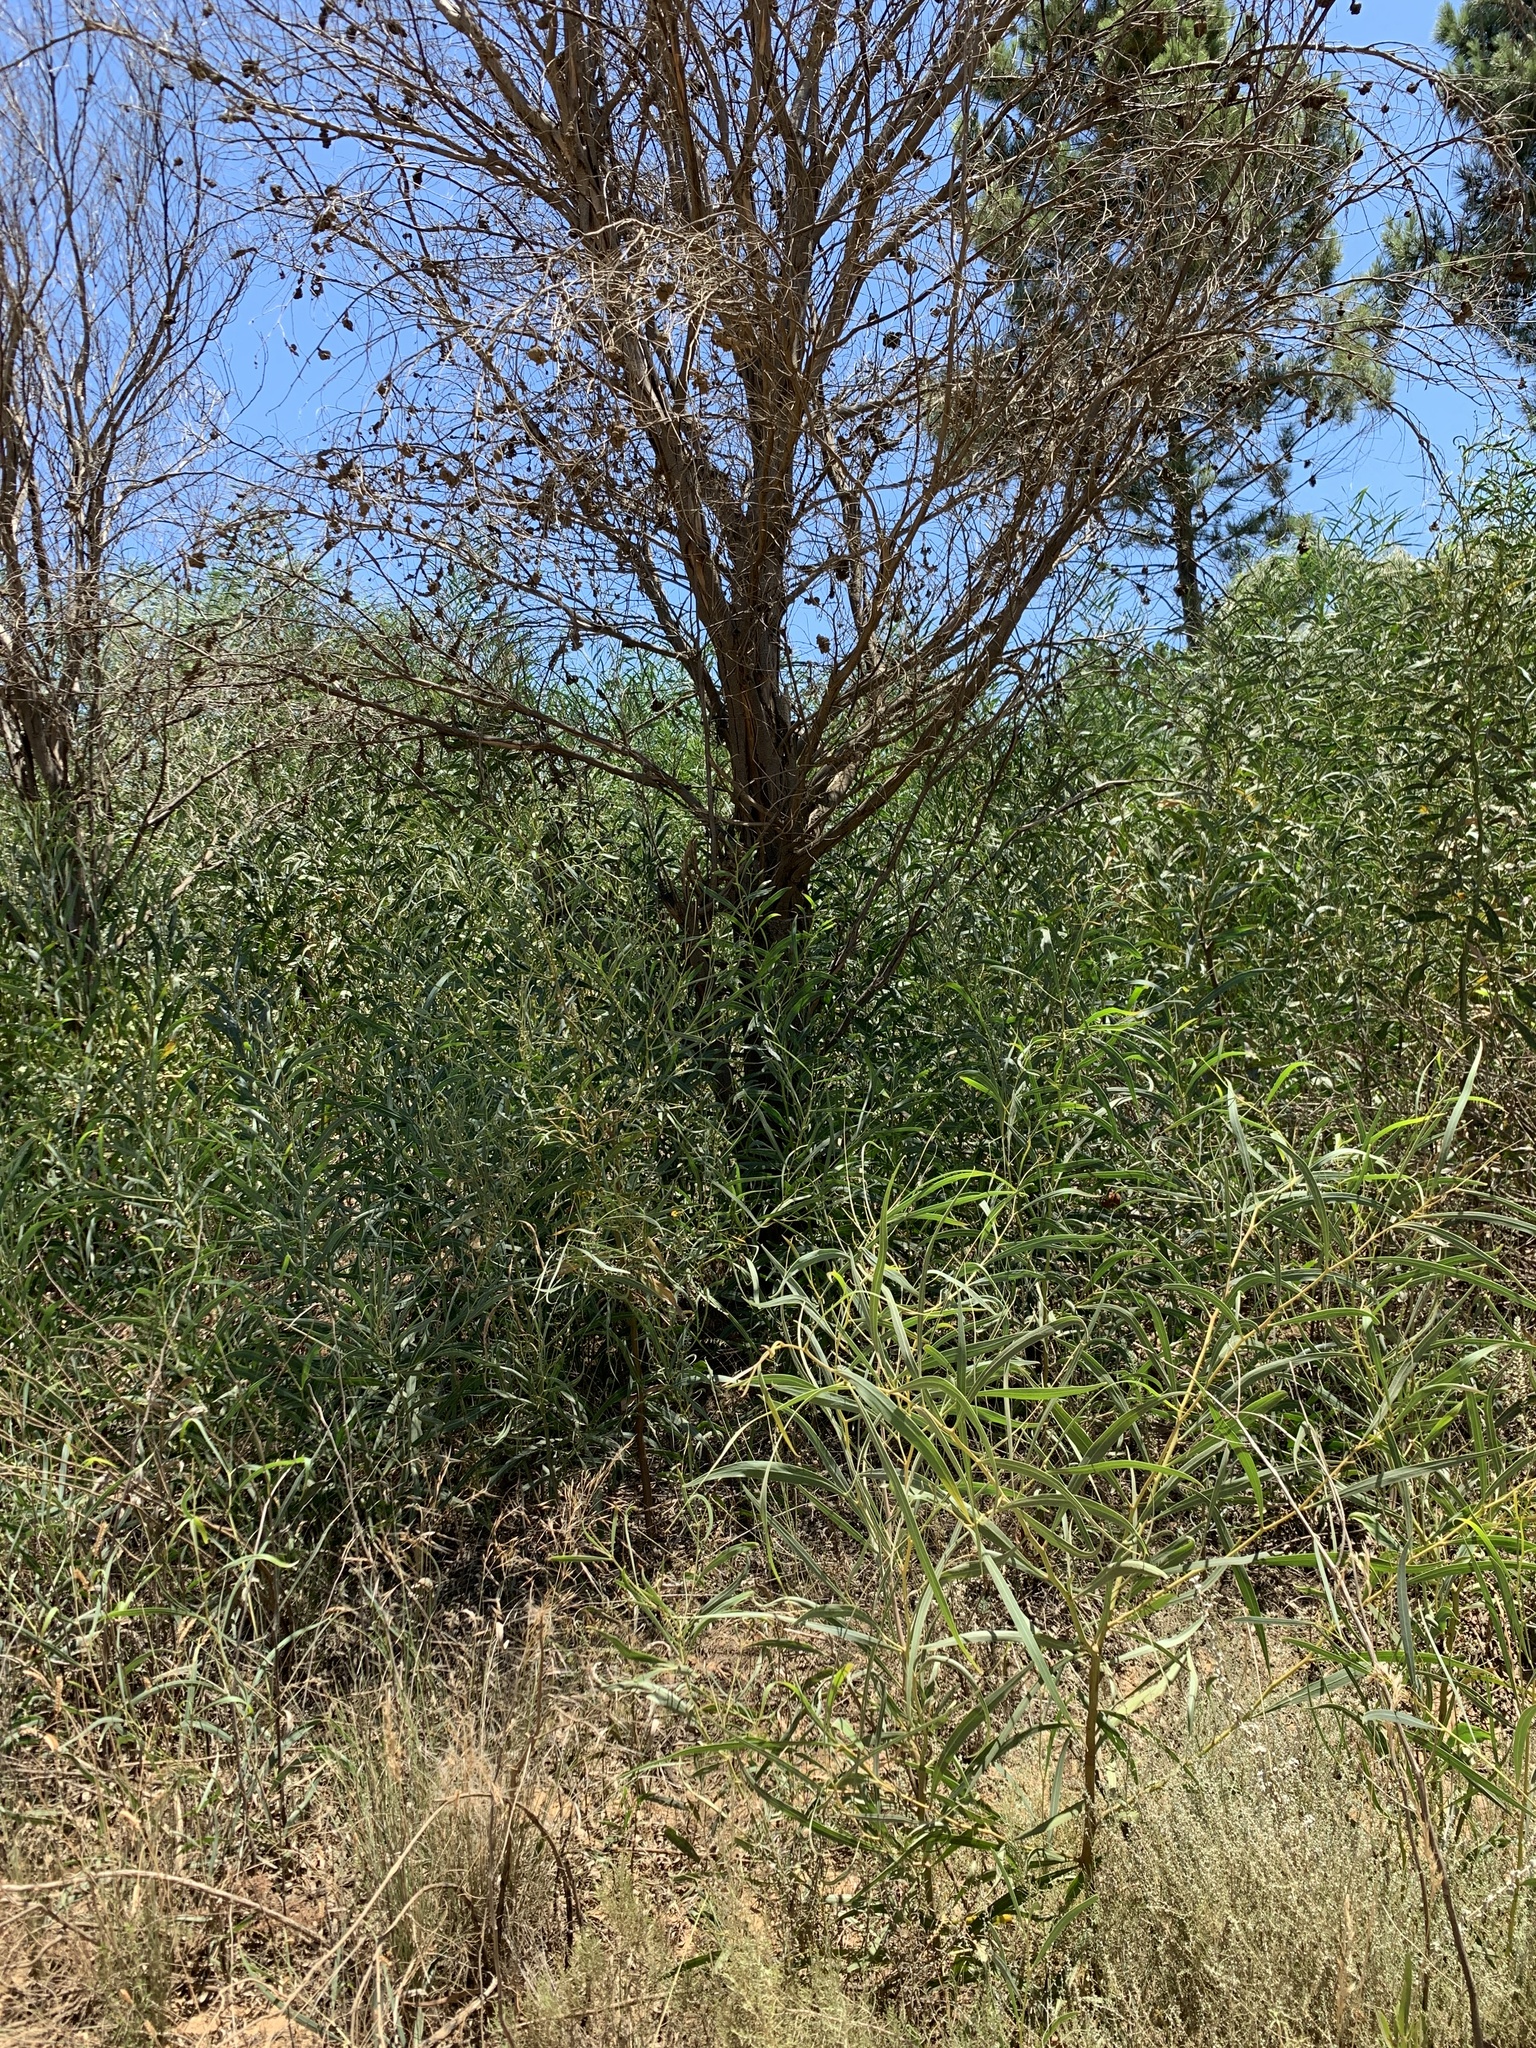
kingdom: Plantae
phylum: Tracheophyta
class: Magnoliopsida
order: Fabales
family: Fabaceae
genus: Acacia
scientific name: Acacia saligna
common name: Orange wattle
